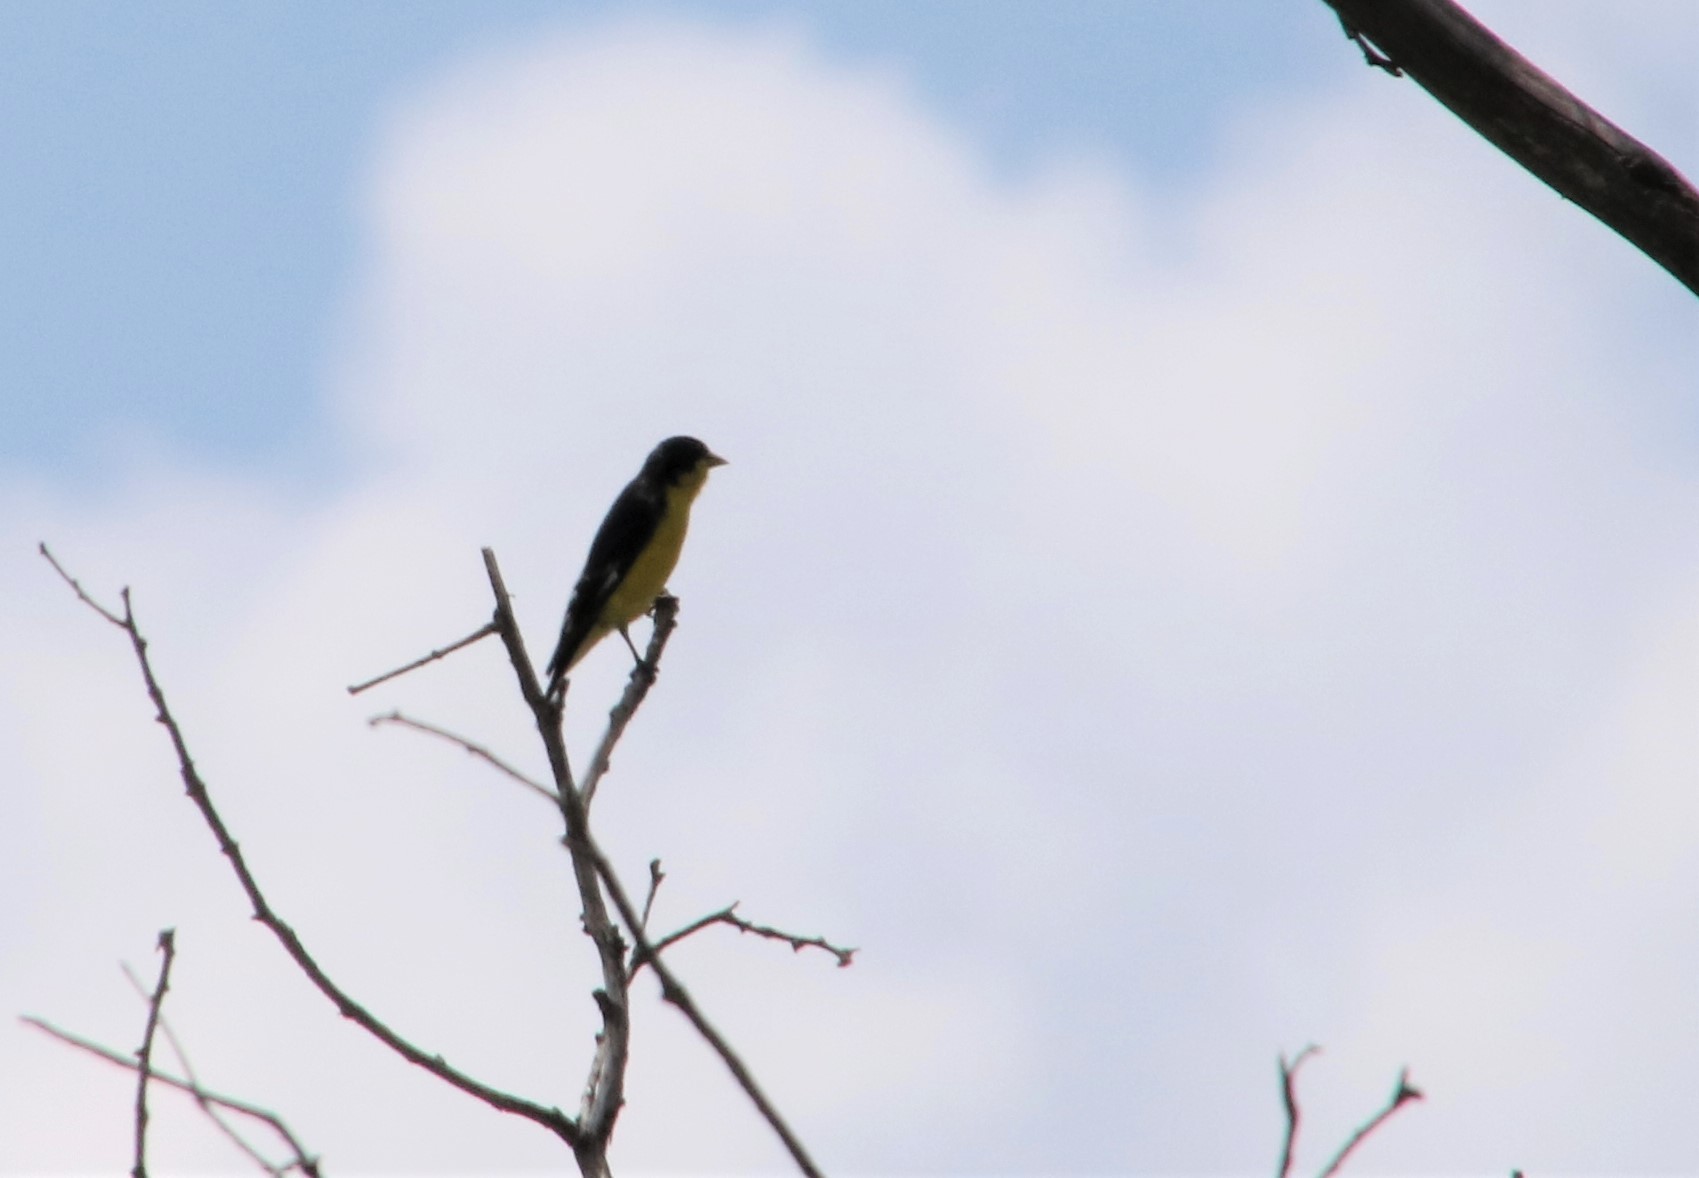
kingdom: Animalia
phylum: Chordata
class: Aves
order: Passeriformes
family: Fringillidae
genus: Spinus
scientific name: Spinus psaltria
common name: Lesser goldfinch
